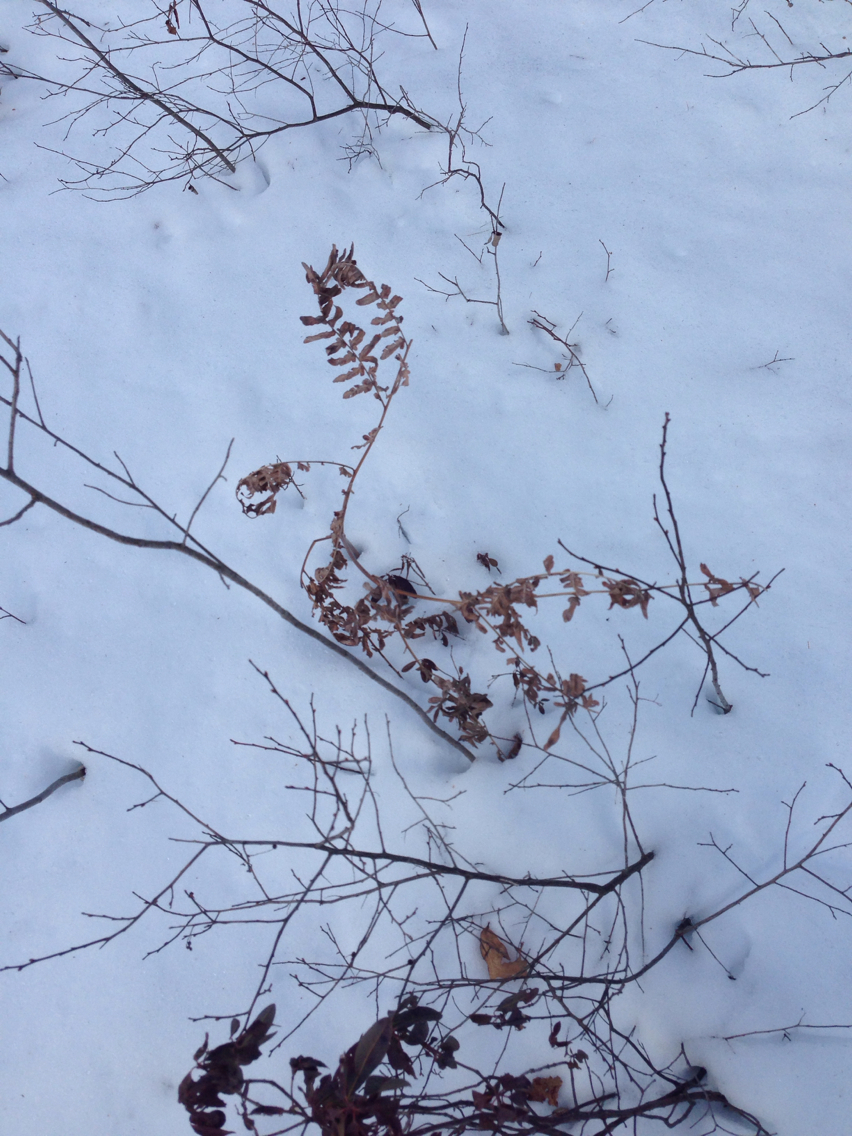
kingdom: Plantae
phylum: Tracheophyta
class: Polypodiopsida
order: Polypodiales
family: Dennstaedtiaceae
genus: Pteridium
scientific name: Pteridium aquilinum
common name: Bracken
